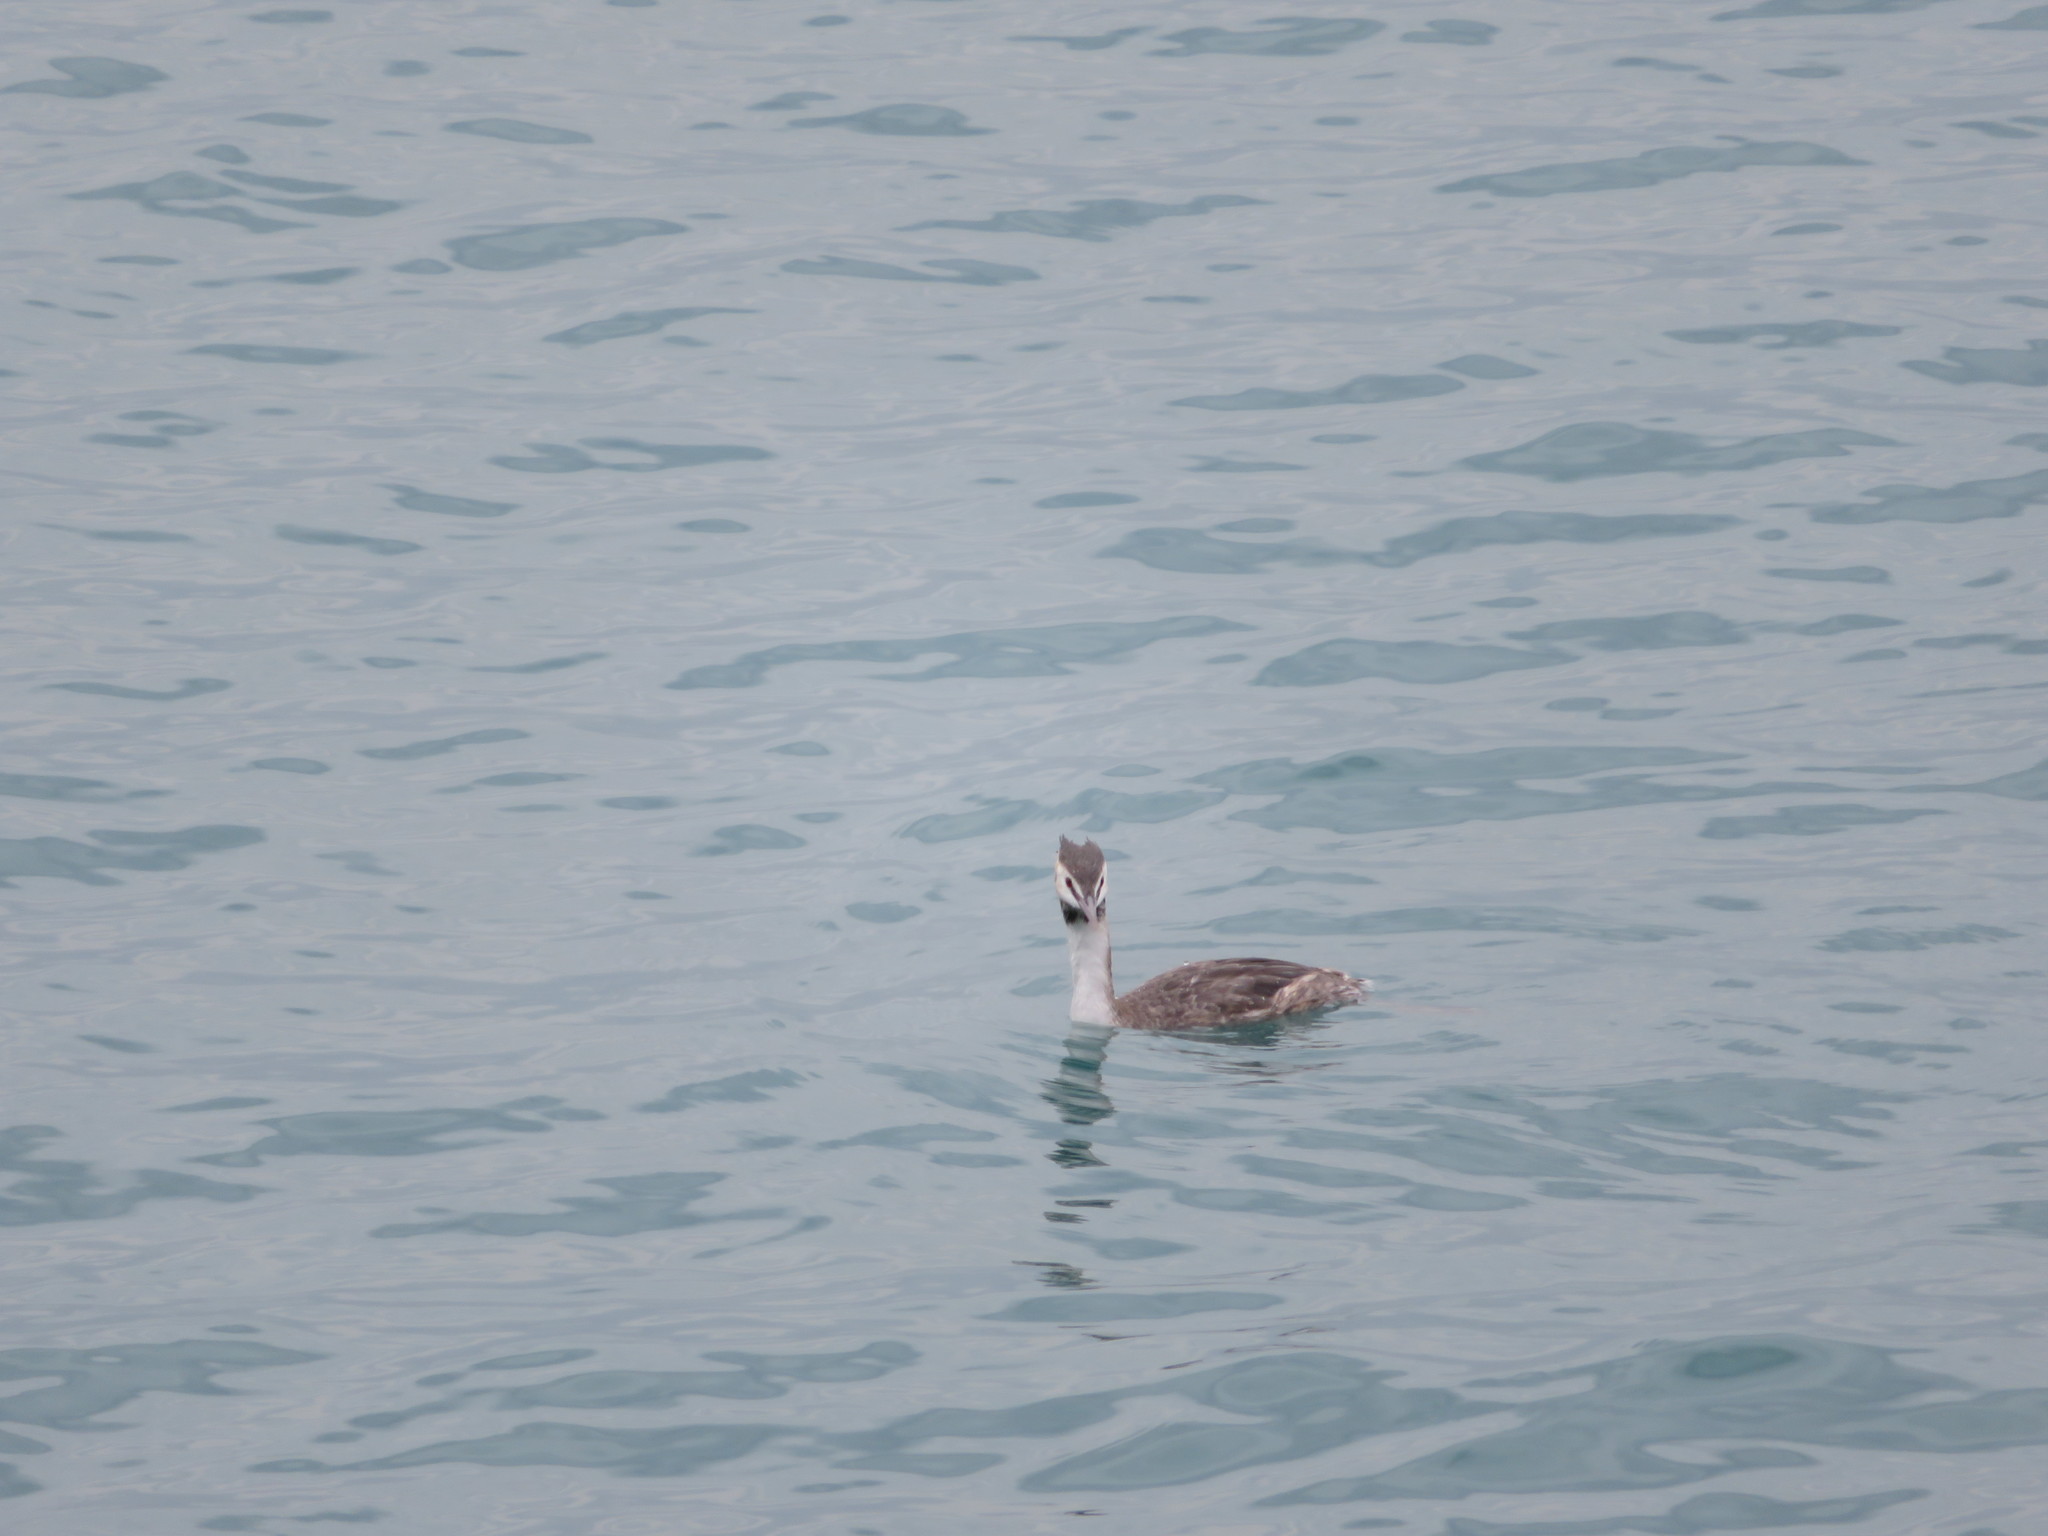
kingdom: Animalia
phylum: Chordata
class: Aves
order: Podicipediformes
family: Podicipedidae
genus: Podiceps
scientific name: Podiceps cristatus
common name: Great crested grebe
